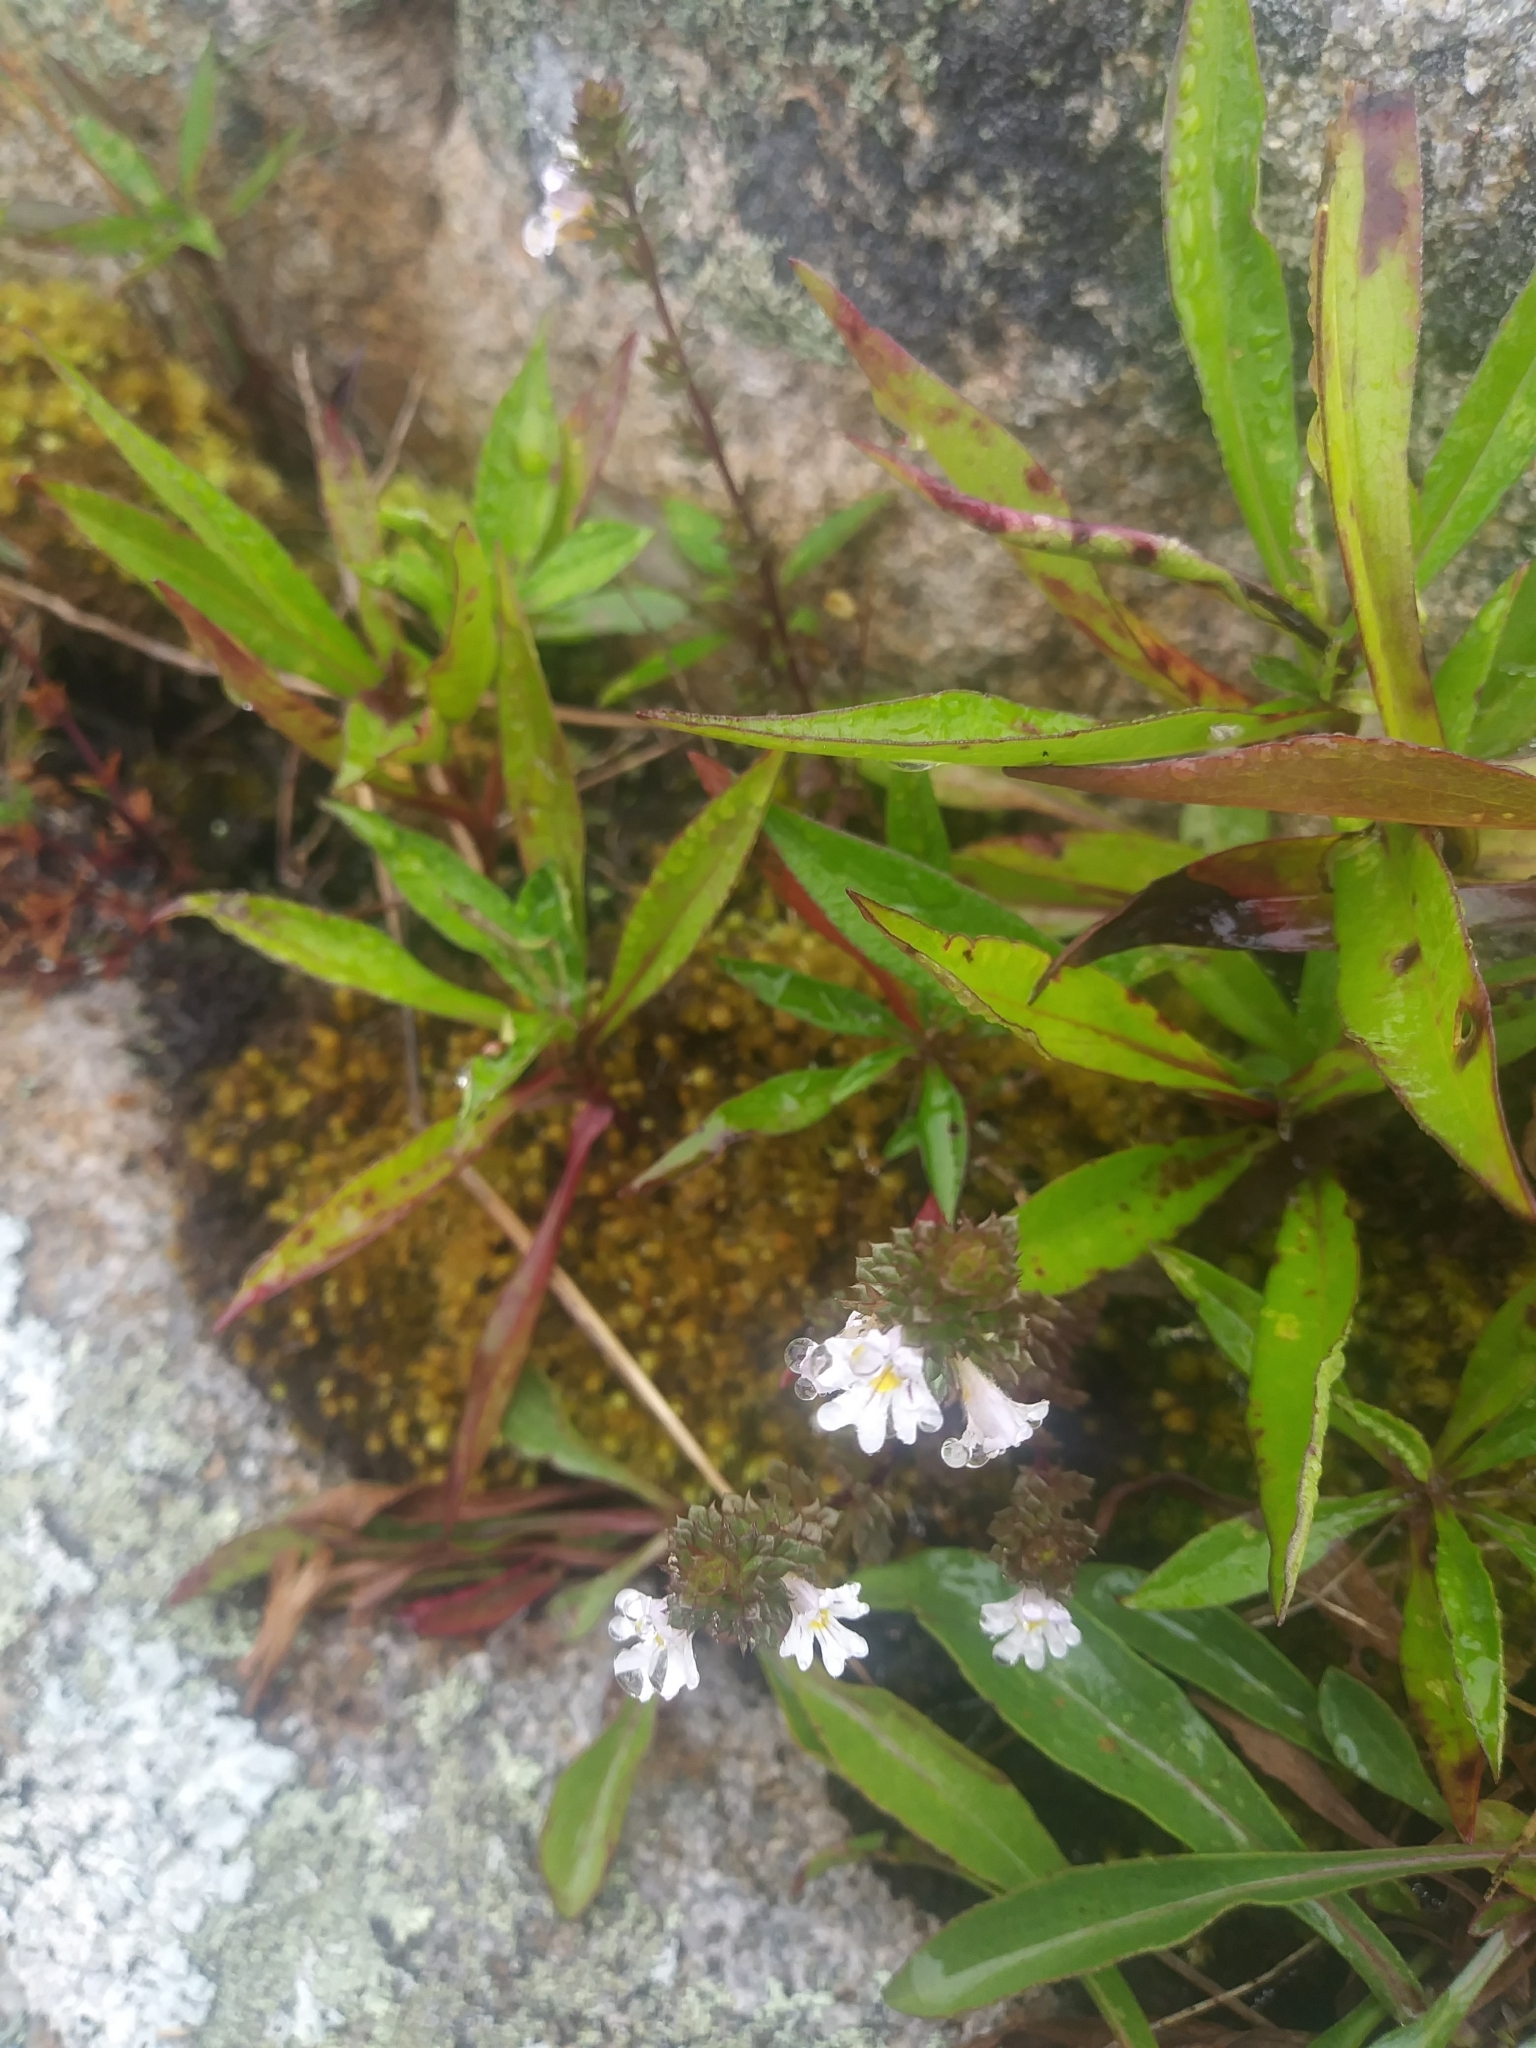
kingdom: Plantae
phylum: Tracheophyta
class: Magnoliopsida
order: Lamiales
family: Orobanchaceae
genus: Euphrasia
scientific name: Euphrasia stricta
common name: Drug eyebright
